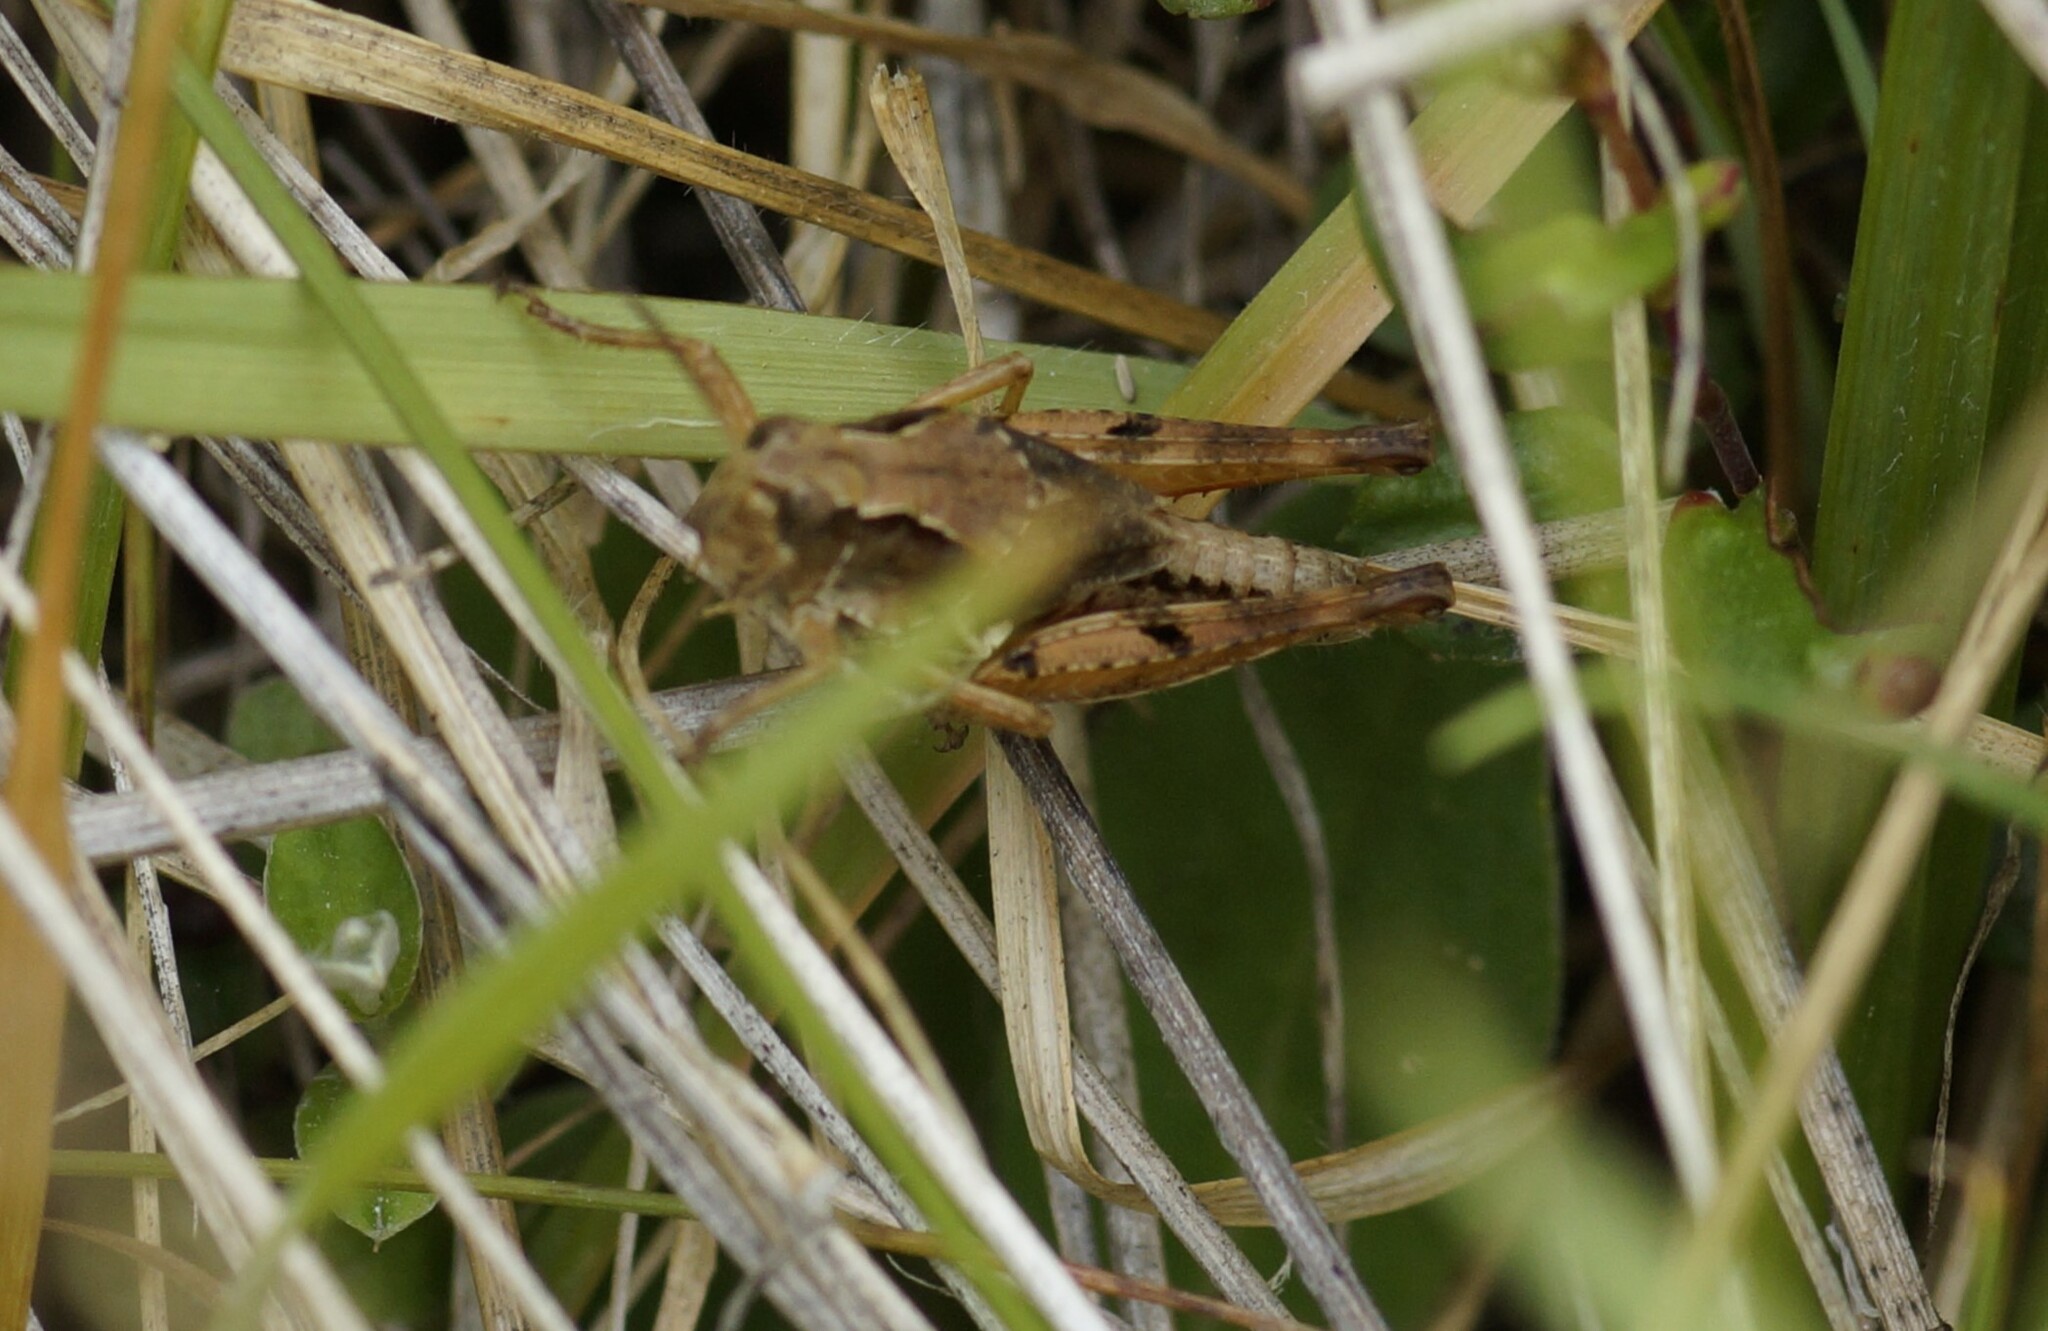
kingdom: Animalia
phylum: Arthropoda
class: Insecta
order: Orthoptera
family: Acrididae
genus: Phaulacridium
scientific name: Phaulacridium marginale
